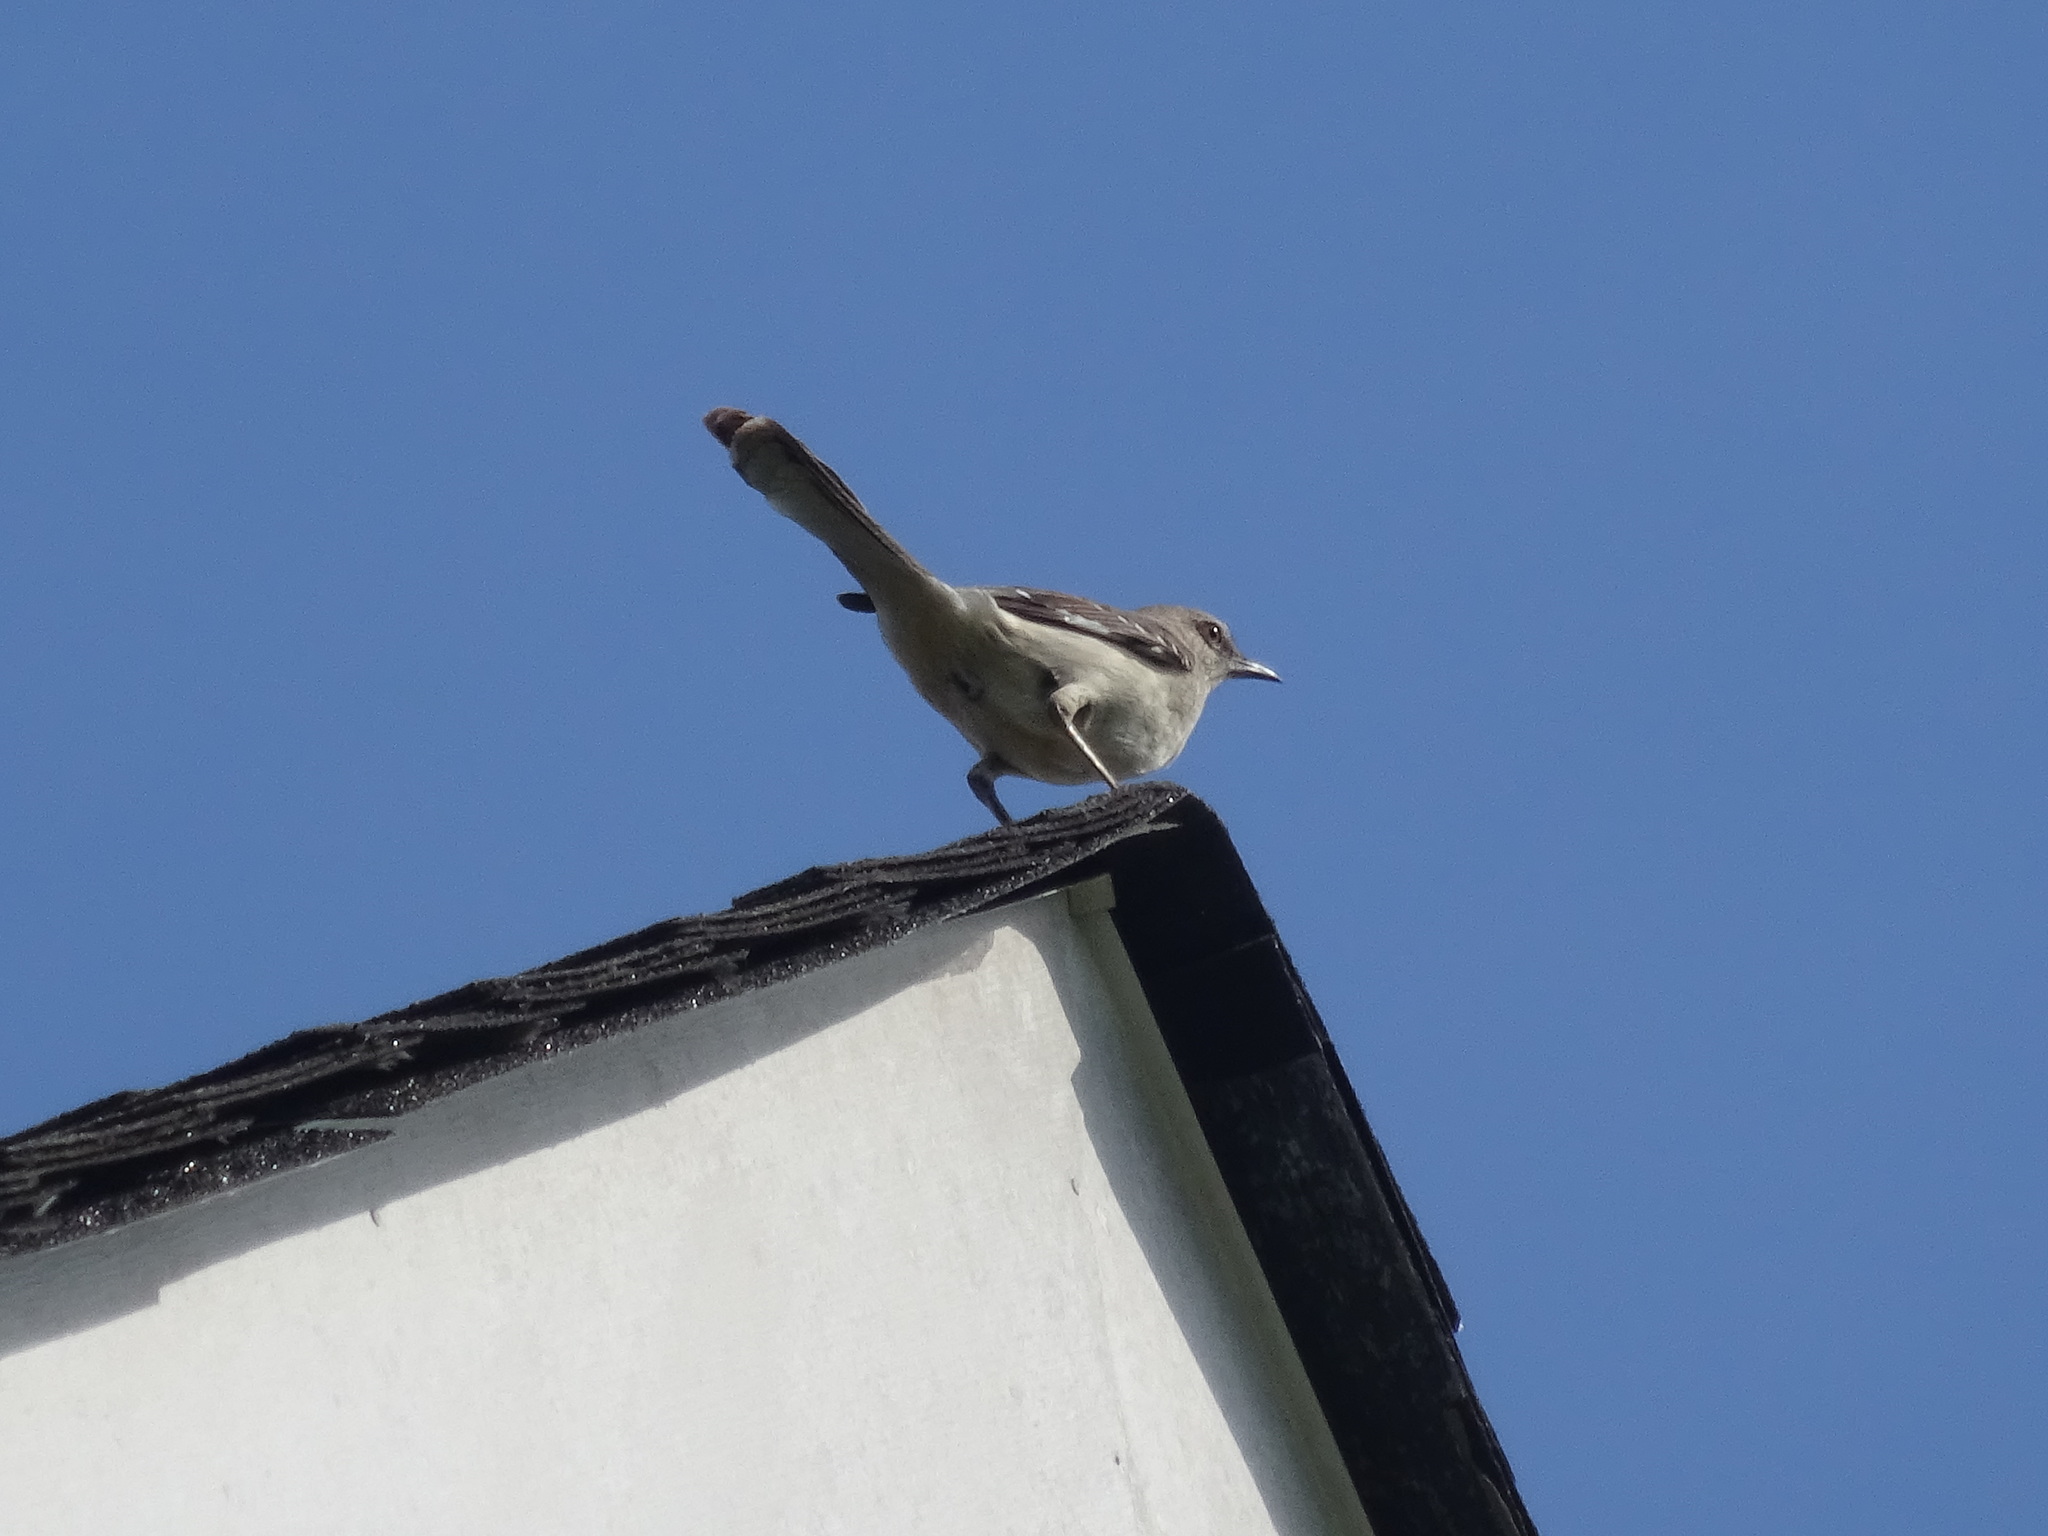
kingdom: Animalia
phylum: Chordata
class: Aves
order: Passeriformes
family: Mimidae
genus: Mimus
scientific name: Mimus polyglottos
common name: Northern mockingbird
